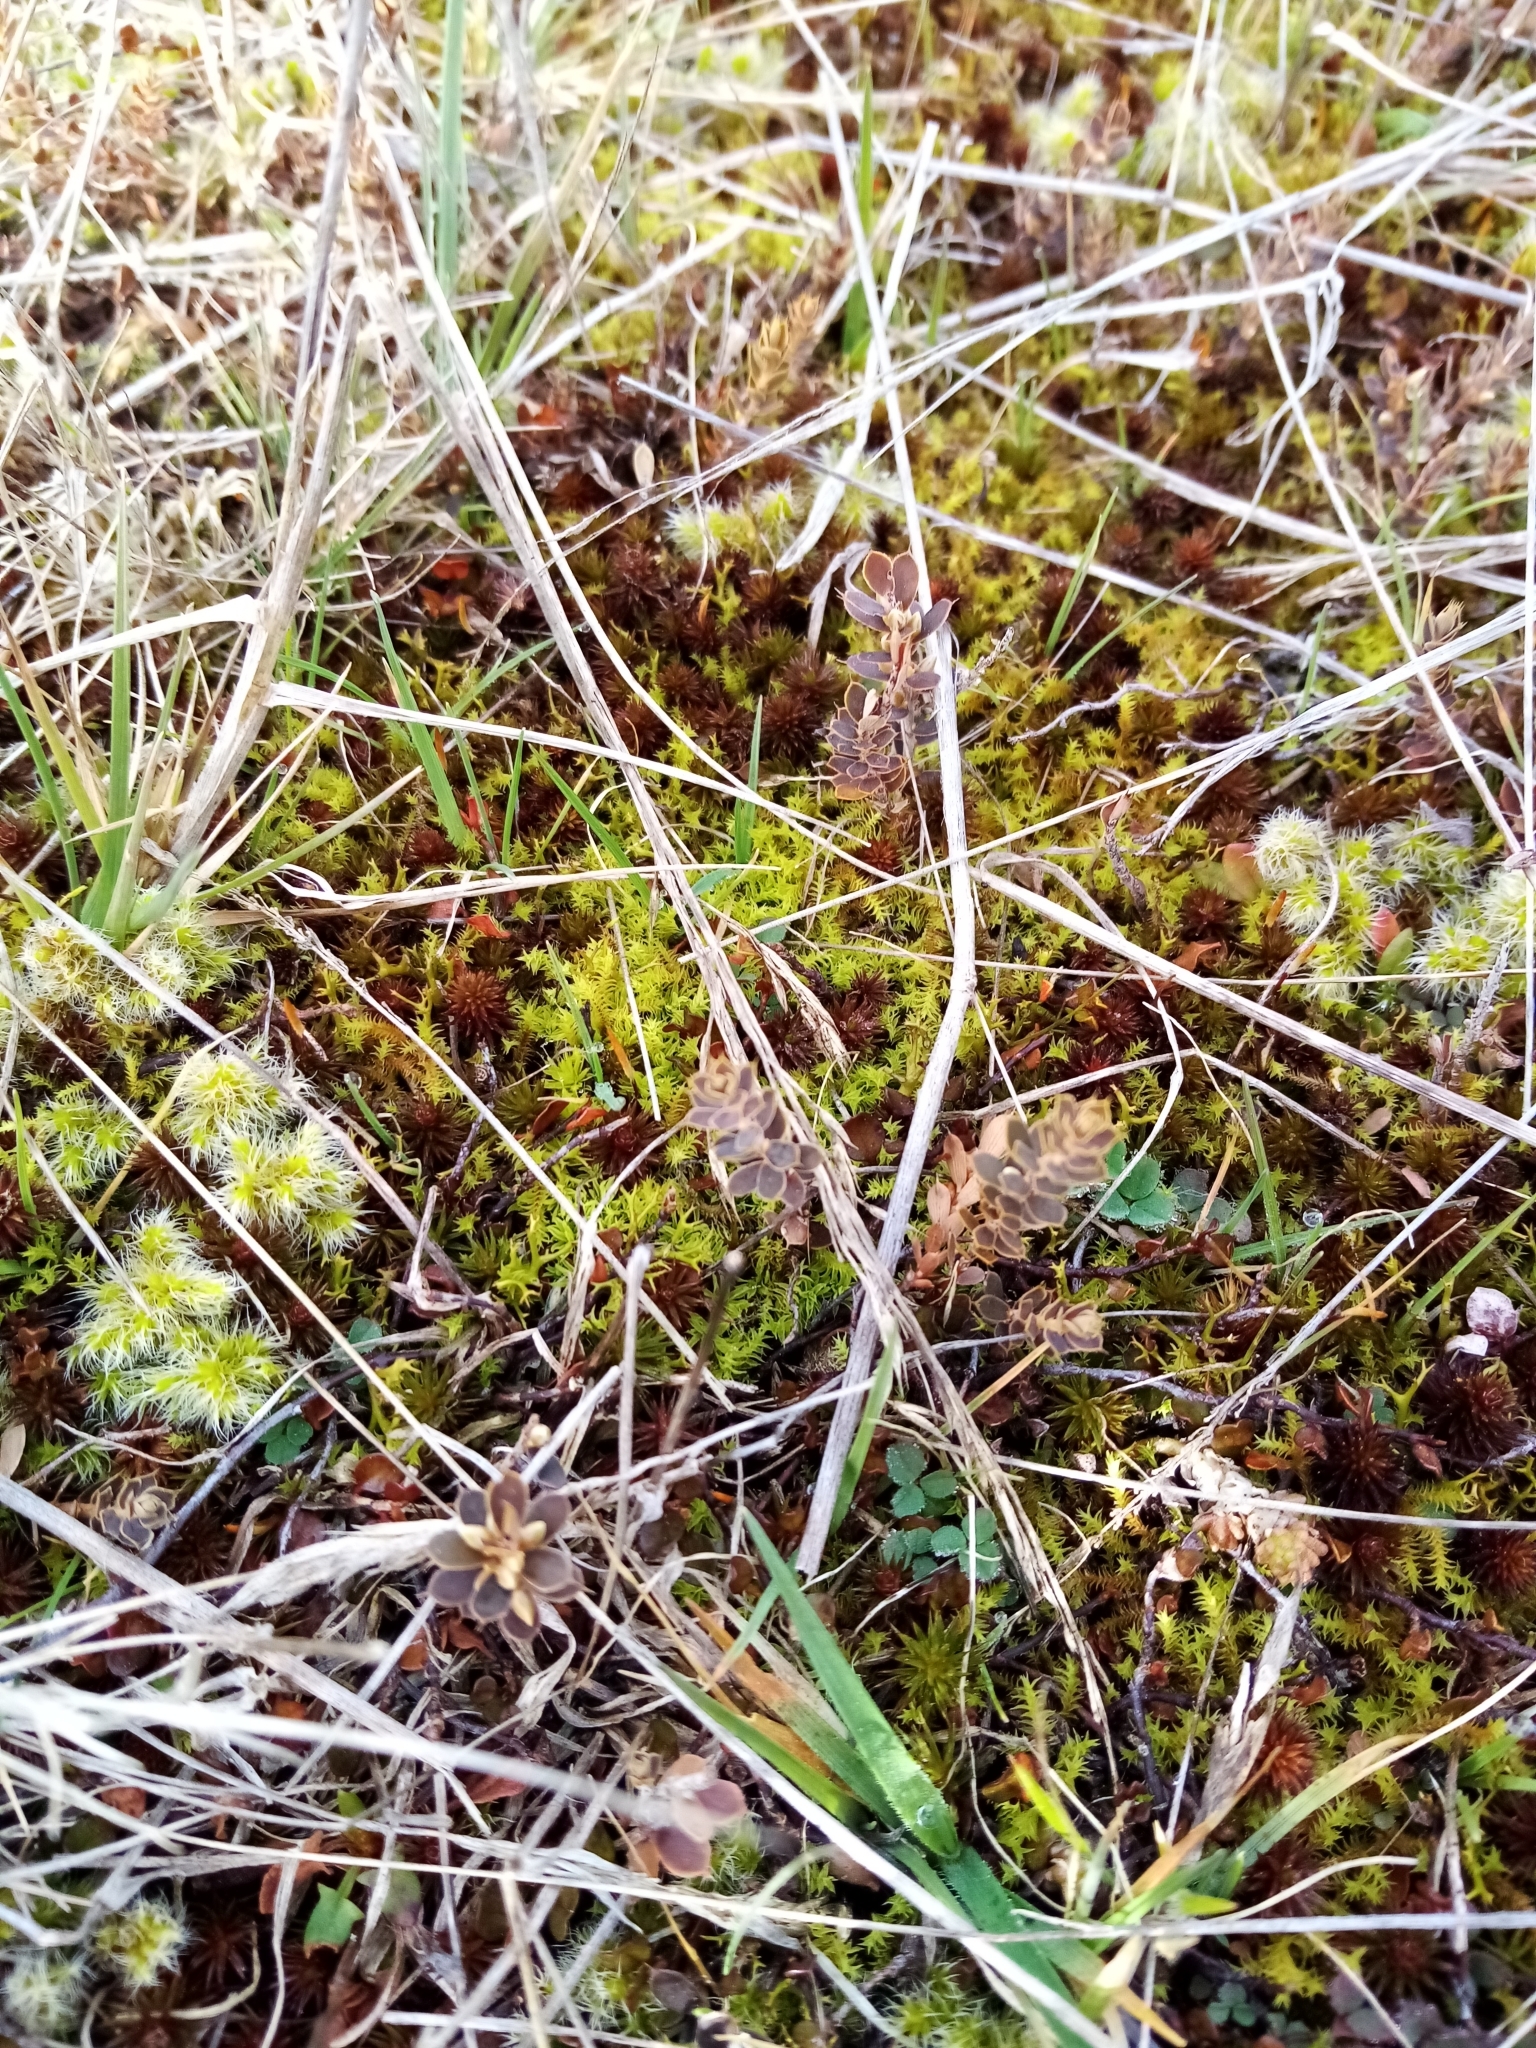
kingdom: Plantae
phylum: Tracheophyta
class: Magnoliopsida
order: Ericales
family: Ericaceae
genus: Styphelia
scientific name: Styphelia nesophila
